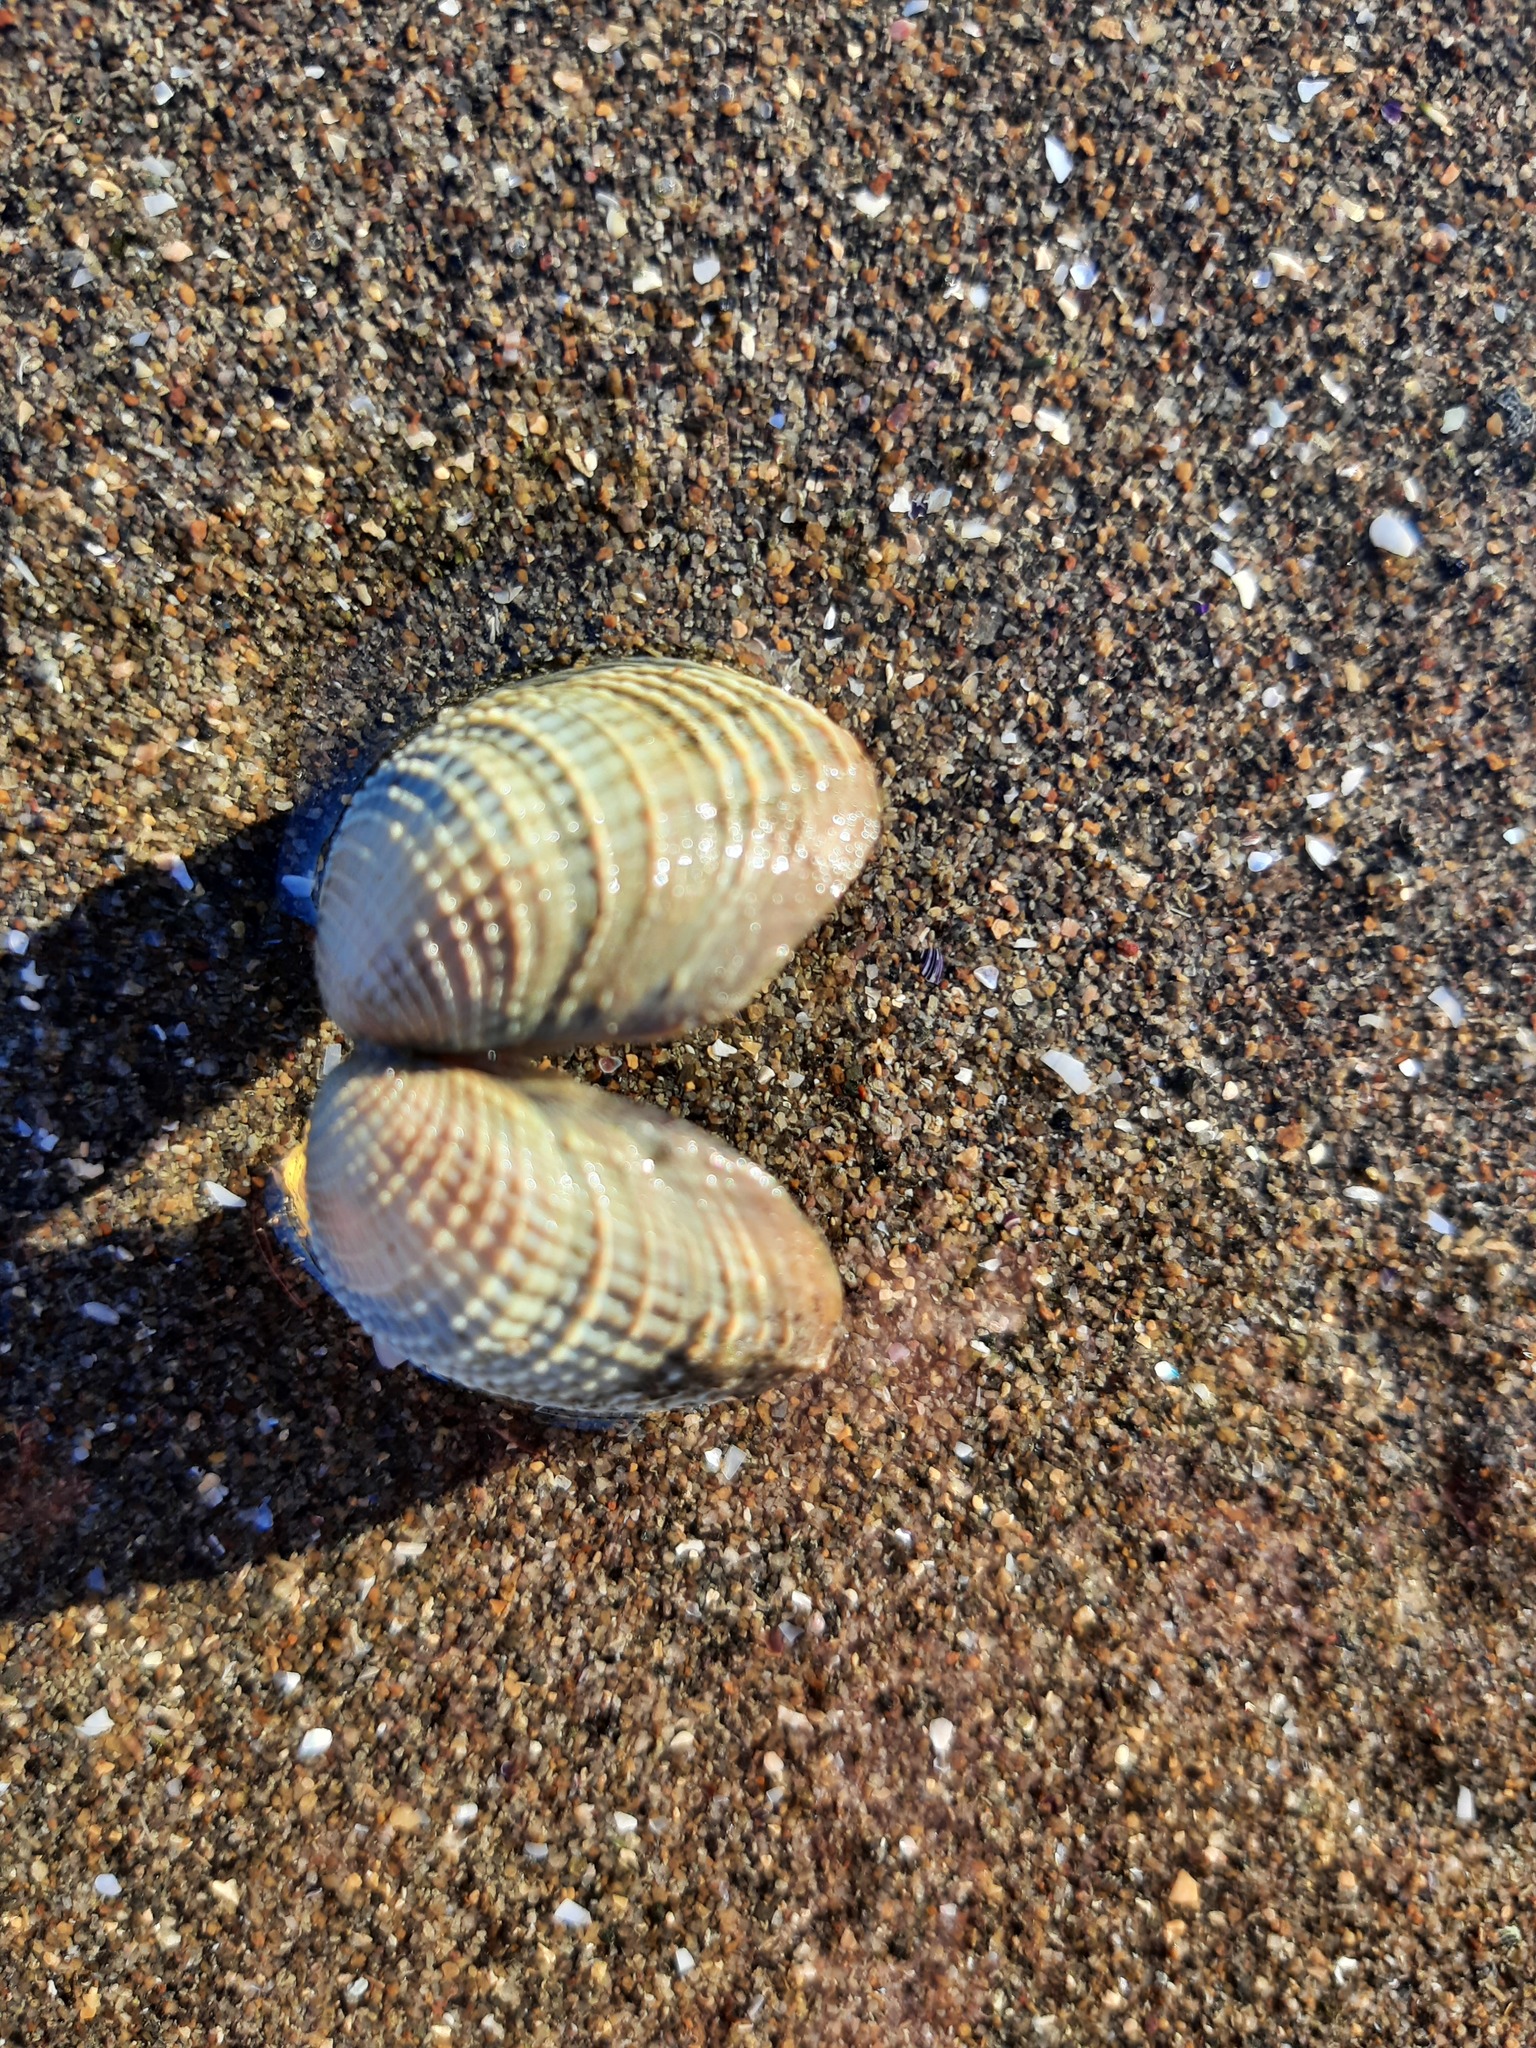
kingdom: Animalia
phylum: Mollusca
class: Bivalvia
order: Venerida
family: Veneridae
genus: Austrovenus
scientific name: Austrovenus stutchburyi
